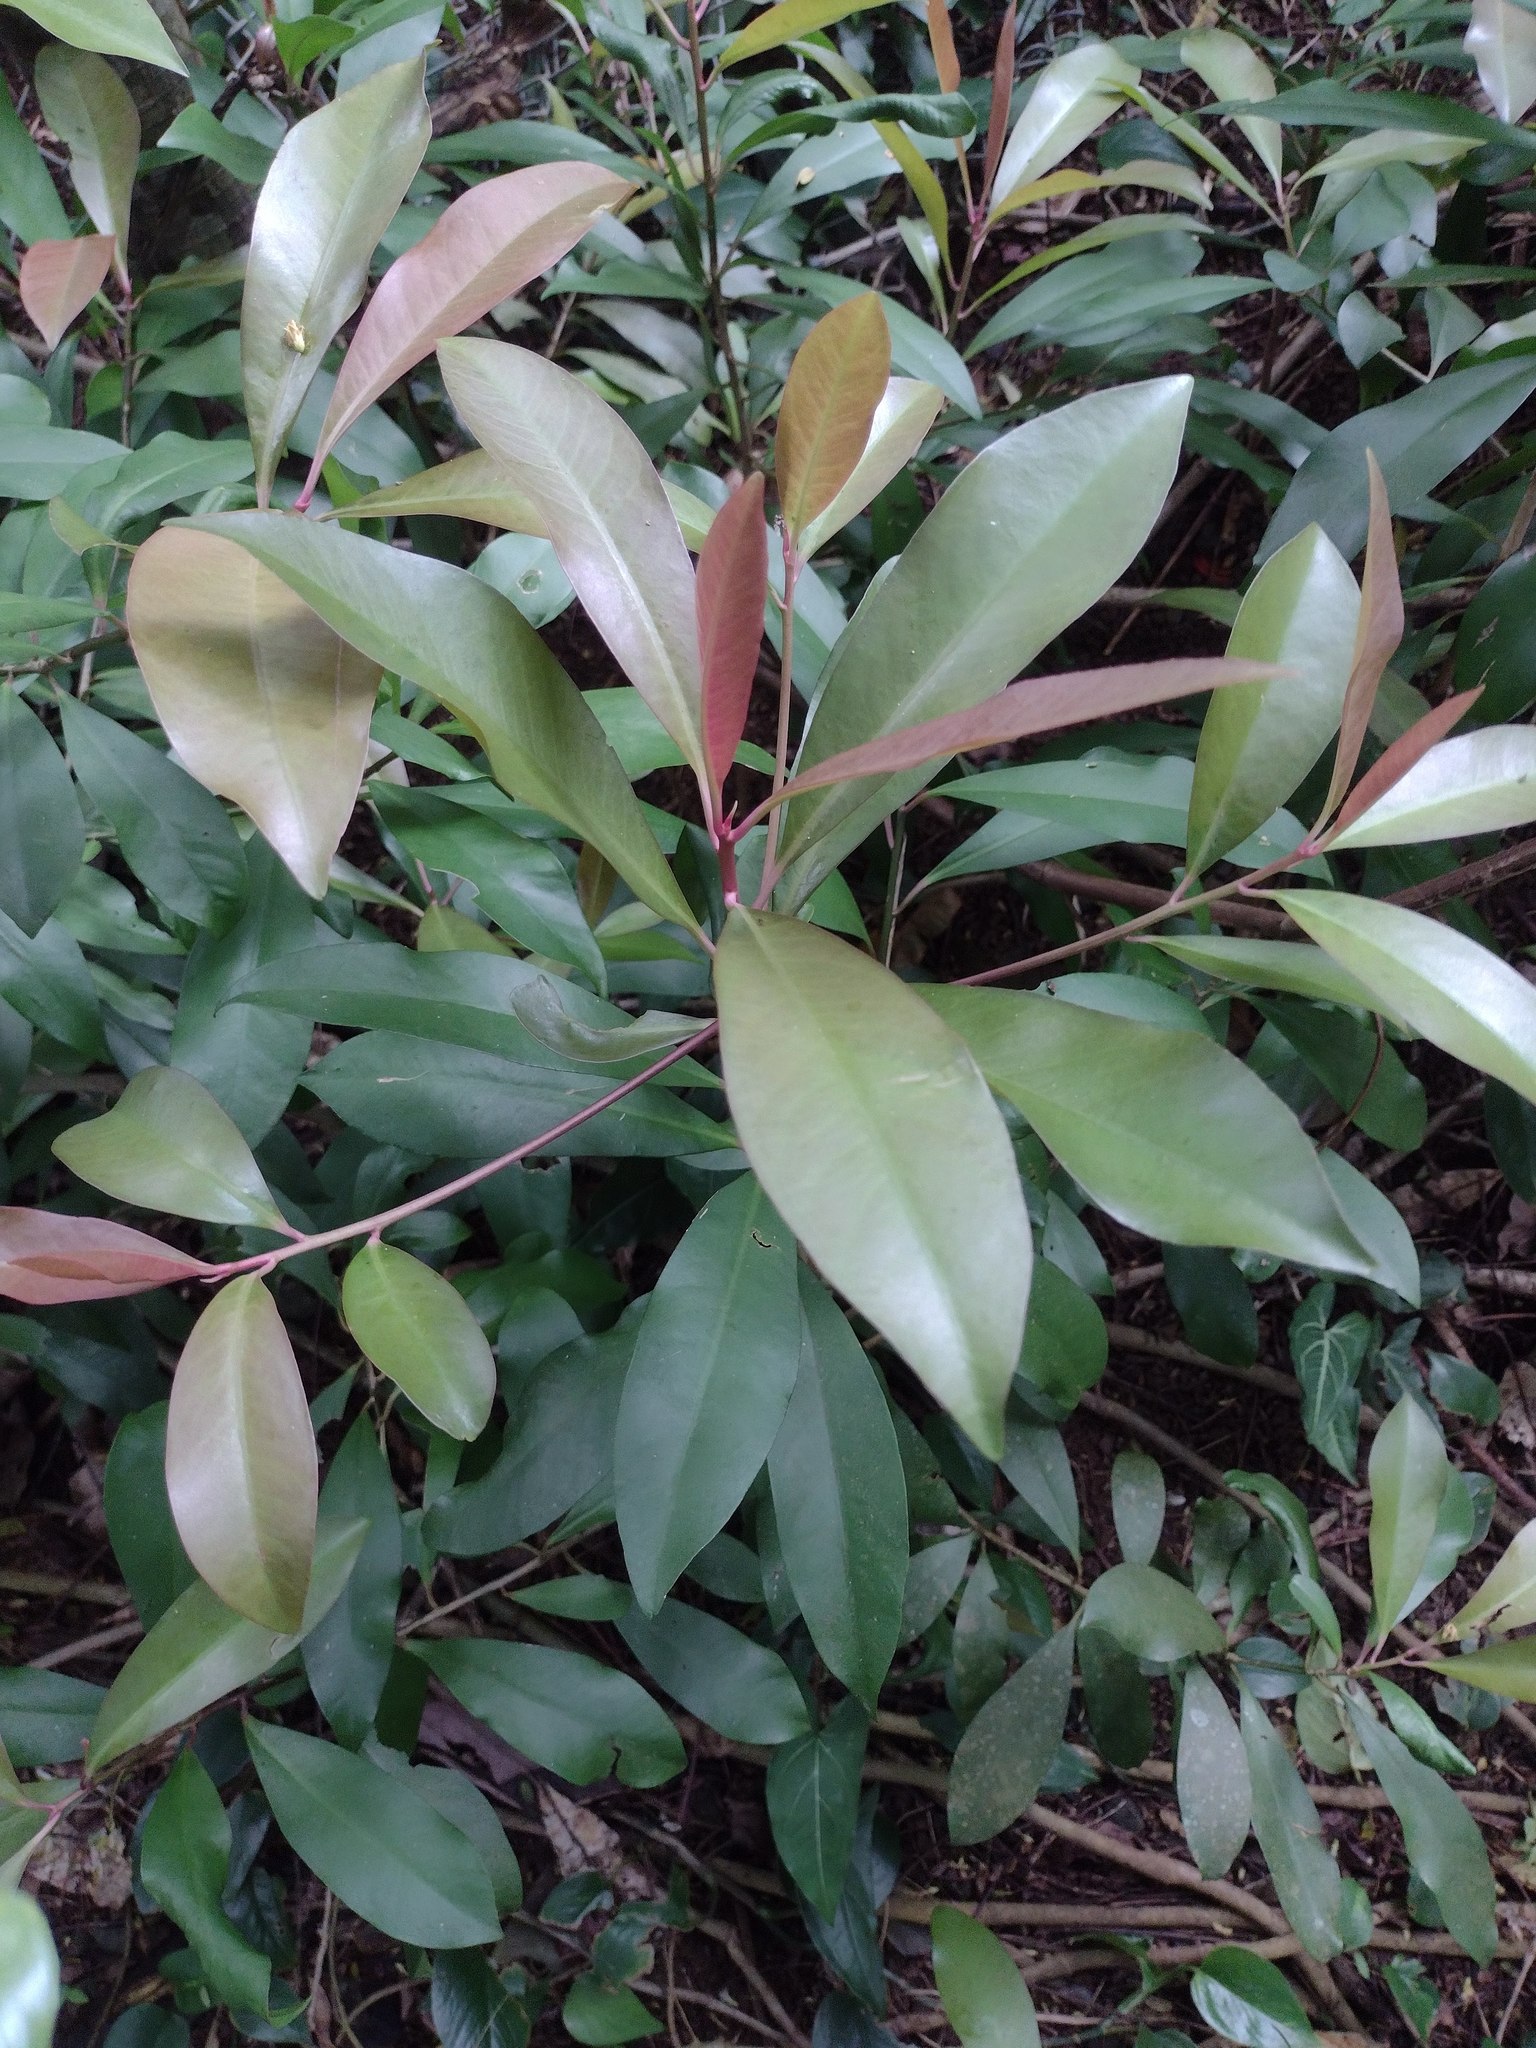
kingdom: Plantae
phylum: Tracheophyta
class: Magnoliopsida
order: Ericales
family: Primulaceae
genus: Ardisia
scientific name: Ardisia elliptica
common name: Shoebutton
